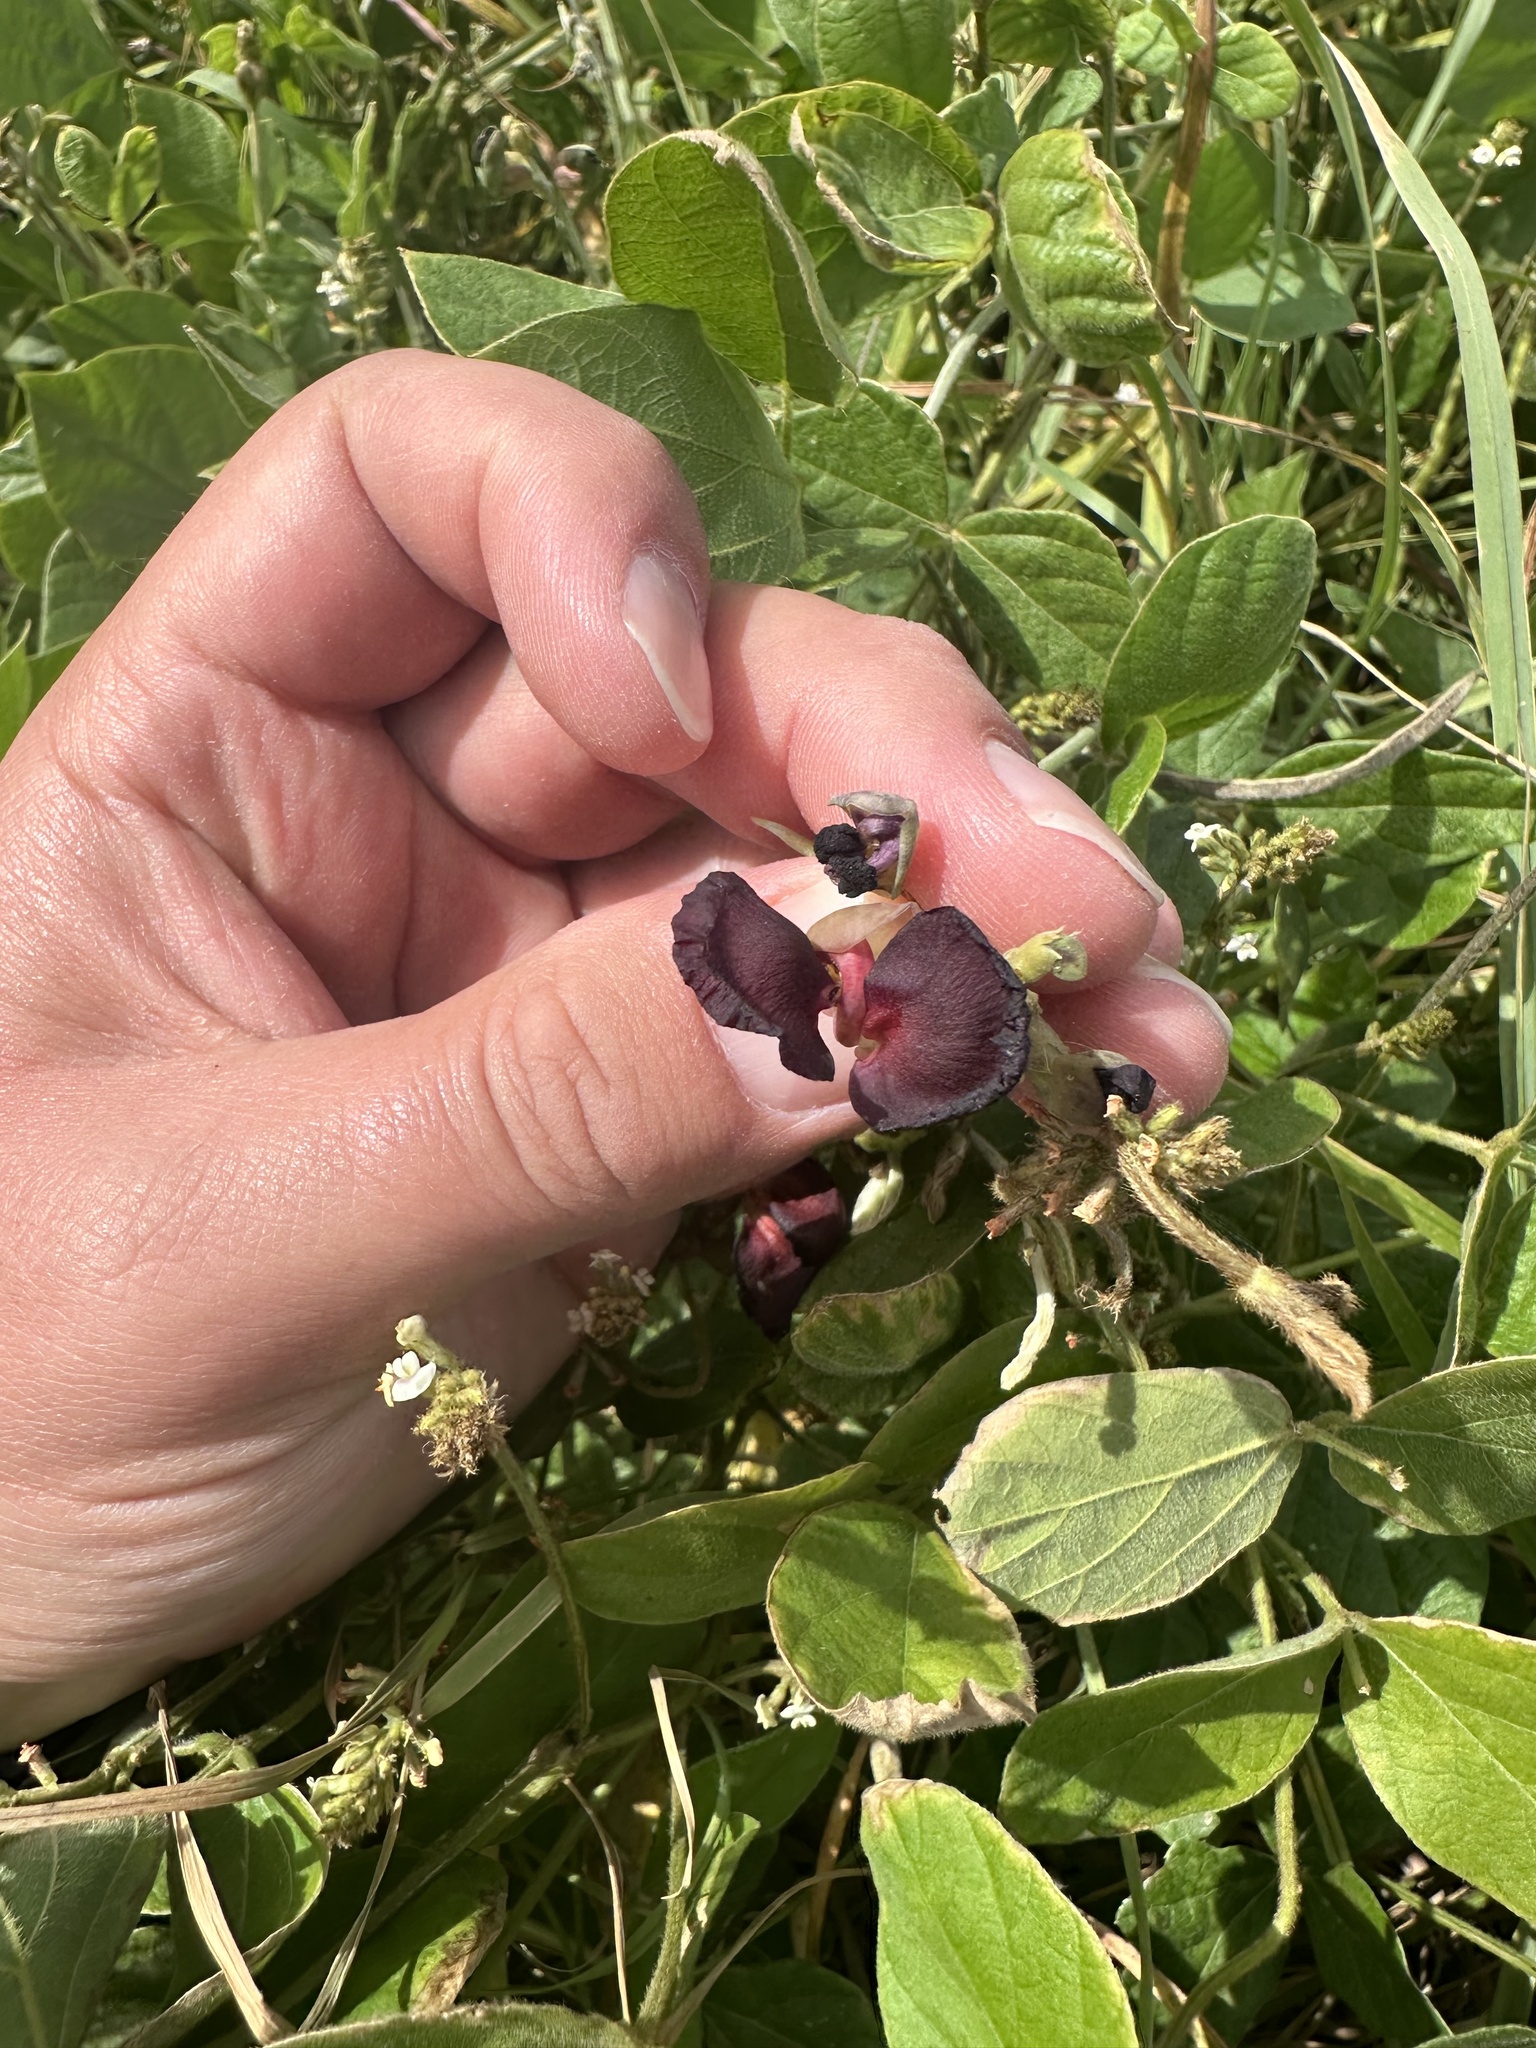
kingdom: Plantae
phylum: Tracheophyta
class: Magnoliopsida
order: Fabales
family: Fabaceae
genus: Macroptilium
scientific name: Macroptilium atropurpureum
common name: Purple bushbean
